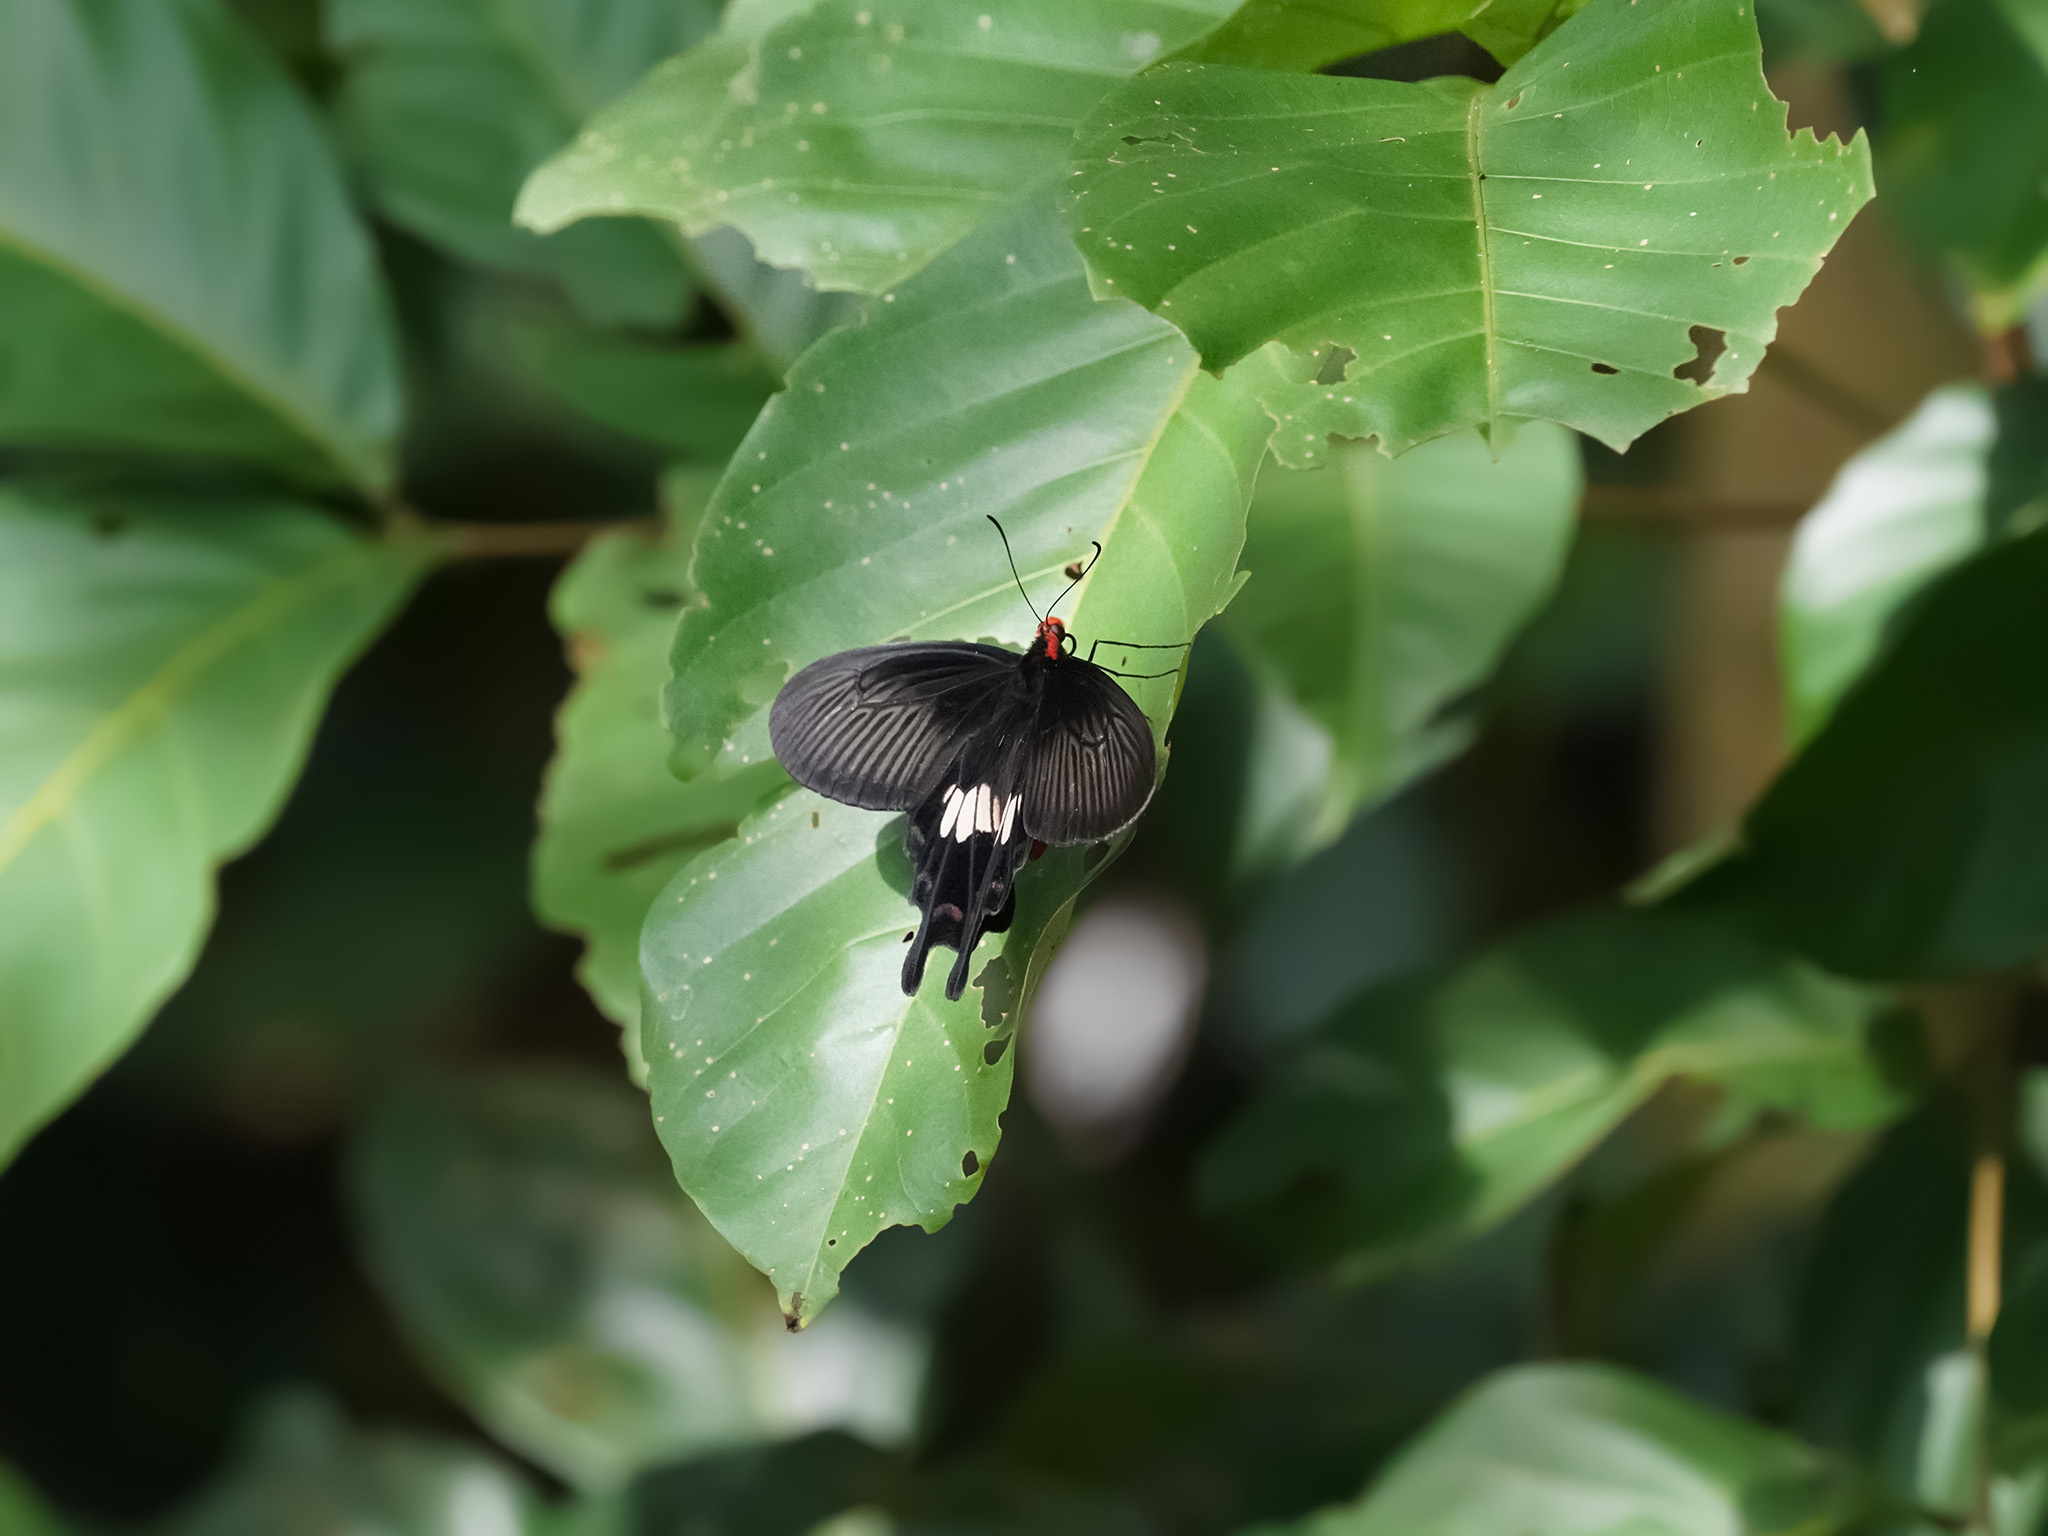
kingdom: Animalia
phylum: Arthropoda
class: Insecta
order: Lepidoptera
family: Papilionidae
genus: Pachliopta
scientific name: Pachliopta aristolochiae
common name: Common rose
